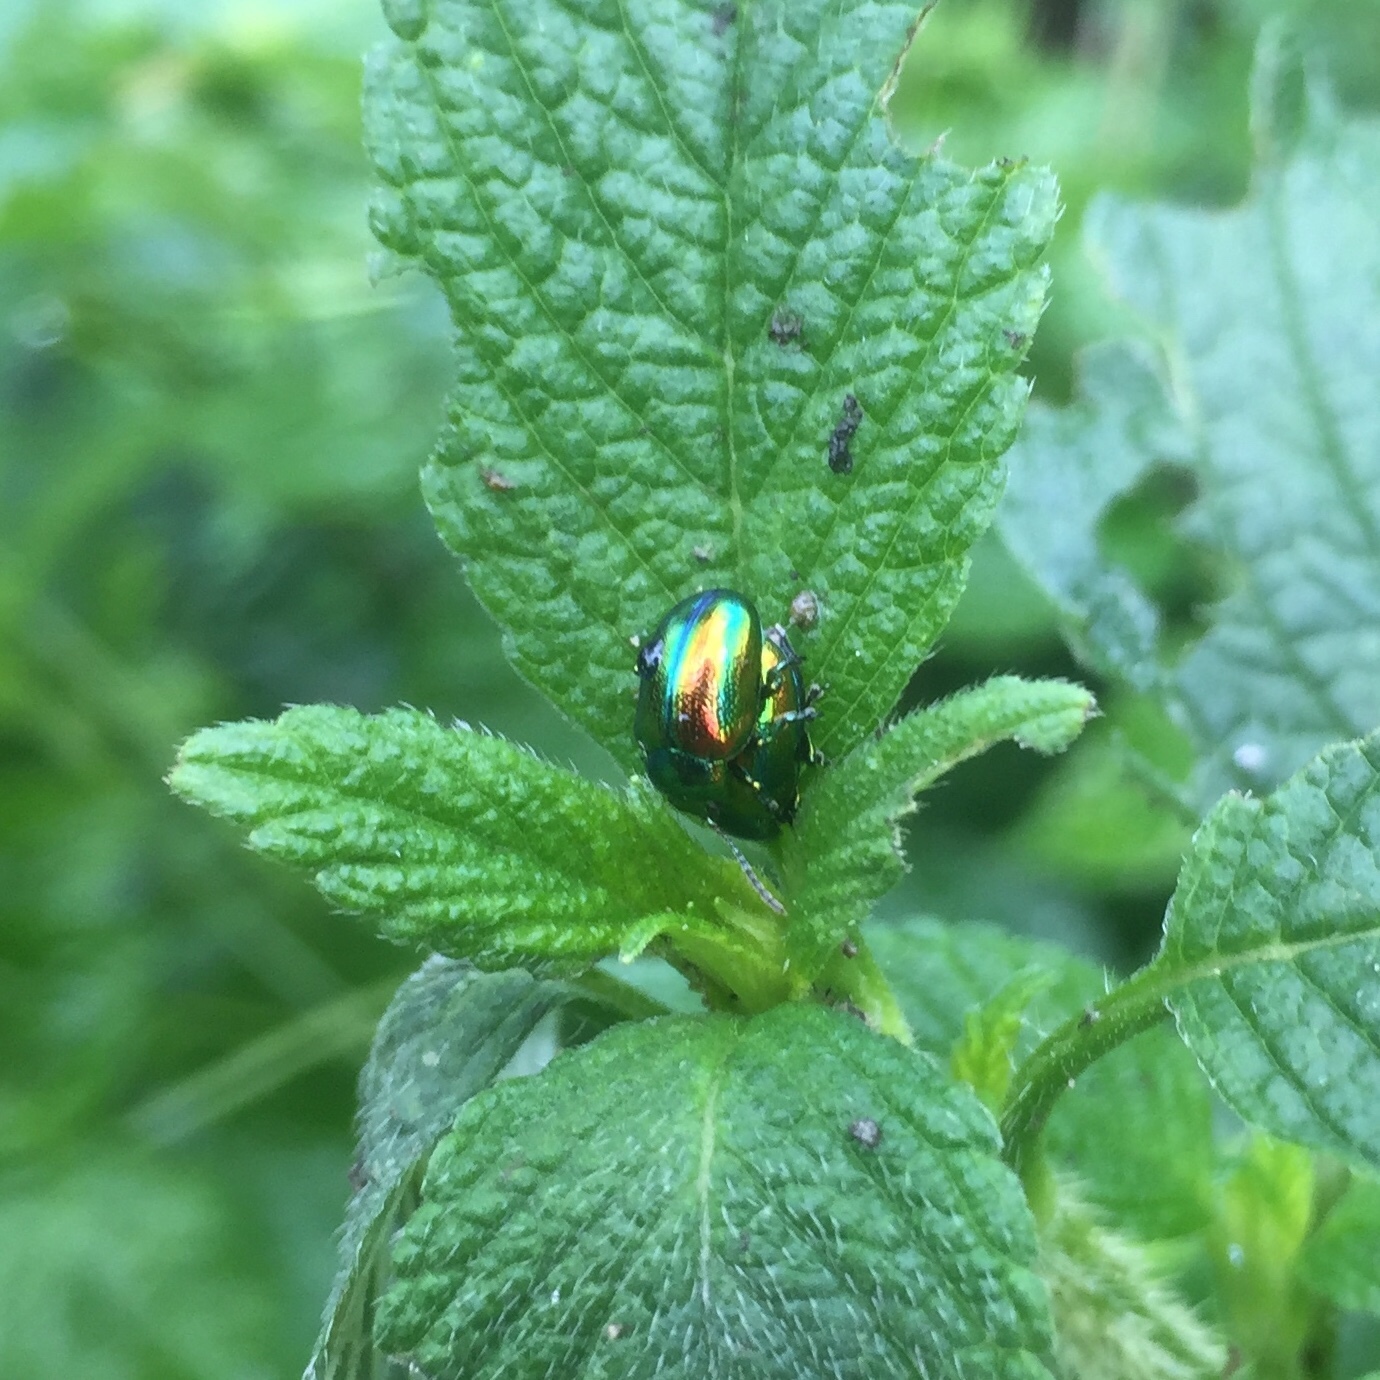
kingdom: Animalia
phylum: Arthropoda
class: Insecta
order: Coleoptera
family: Chrysomelidae
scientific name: Chrysomelidae
